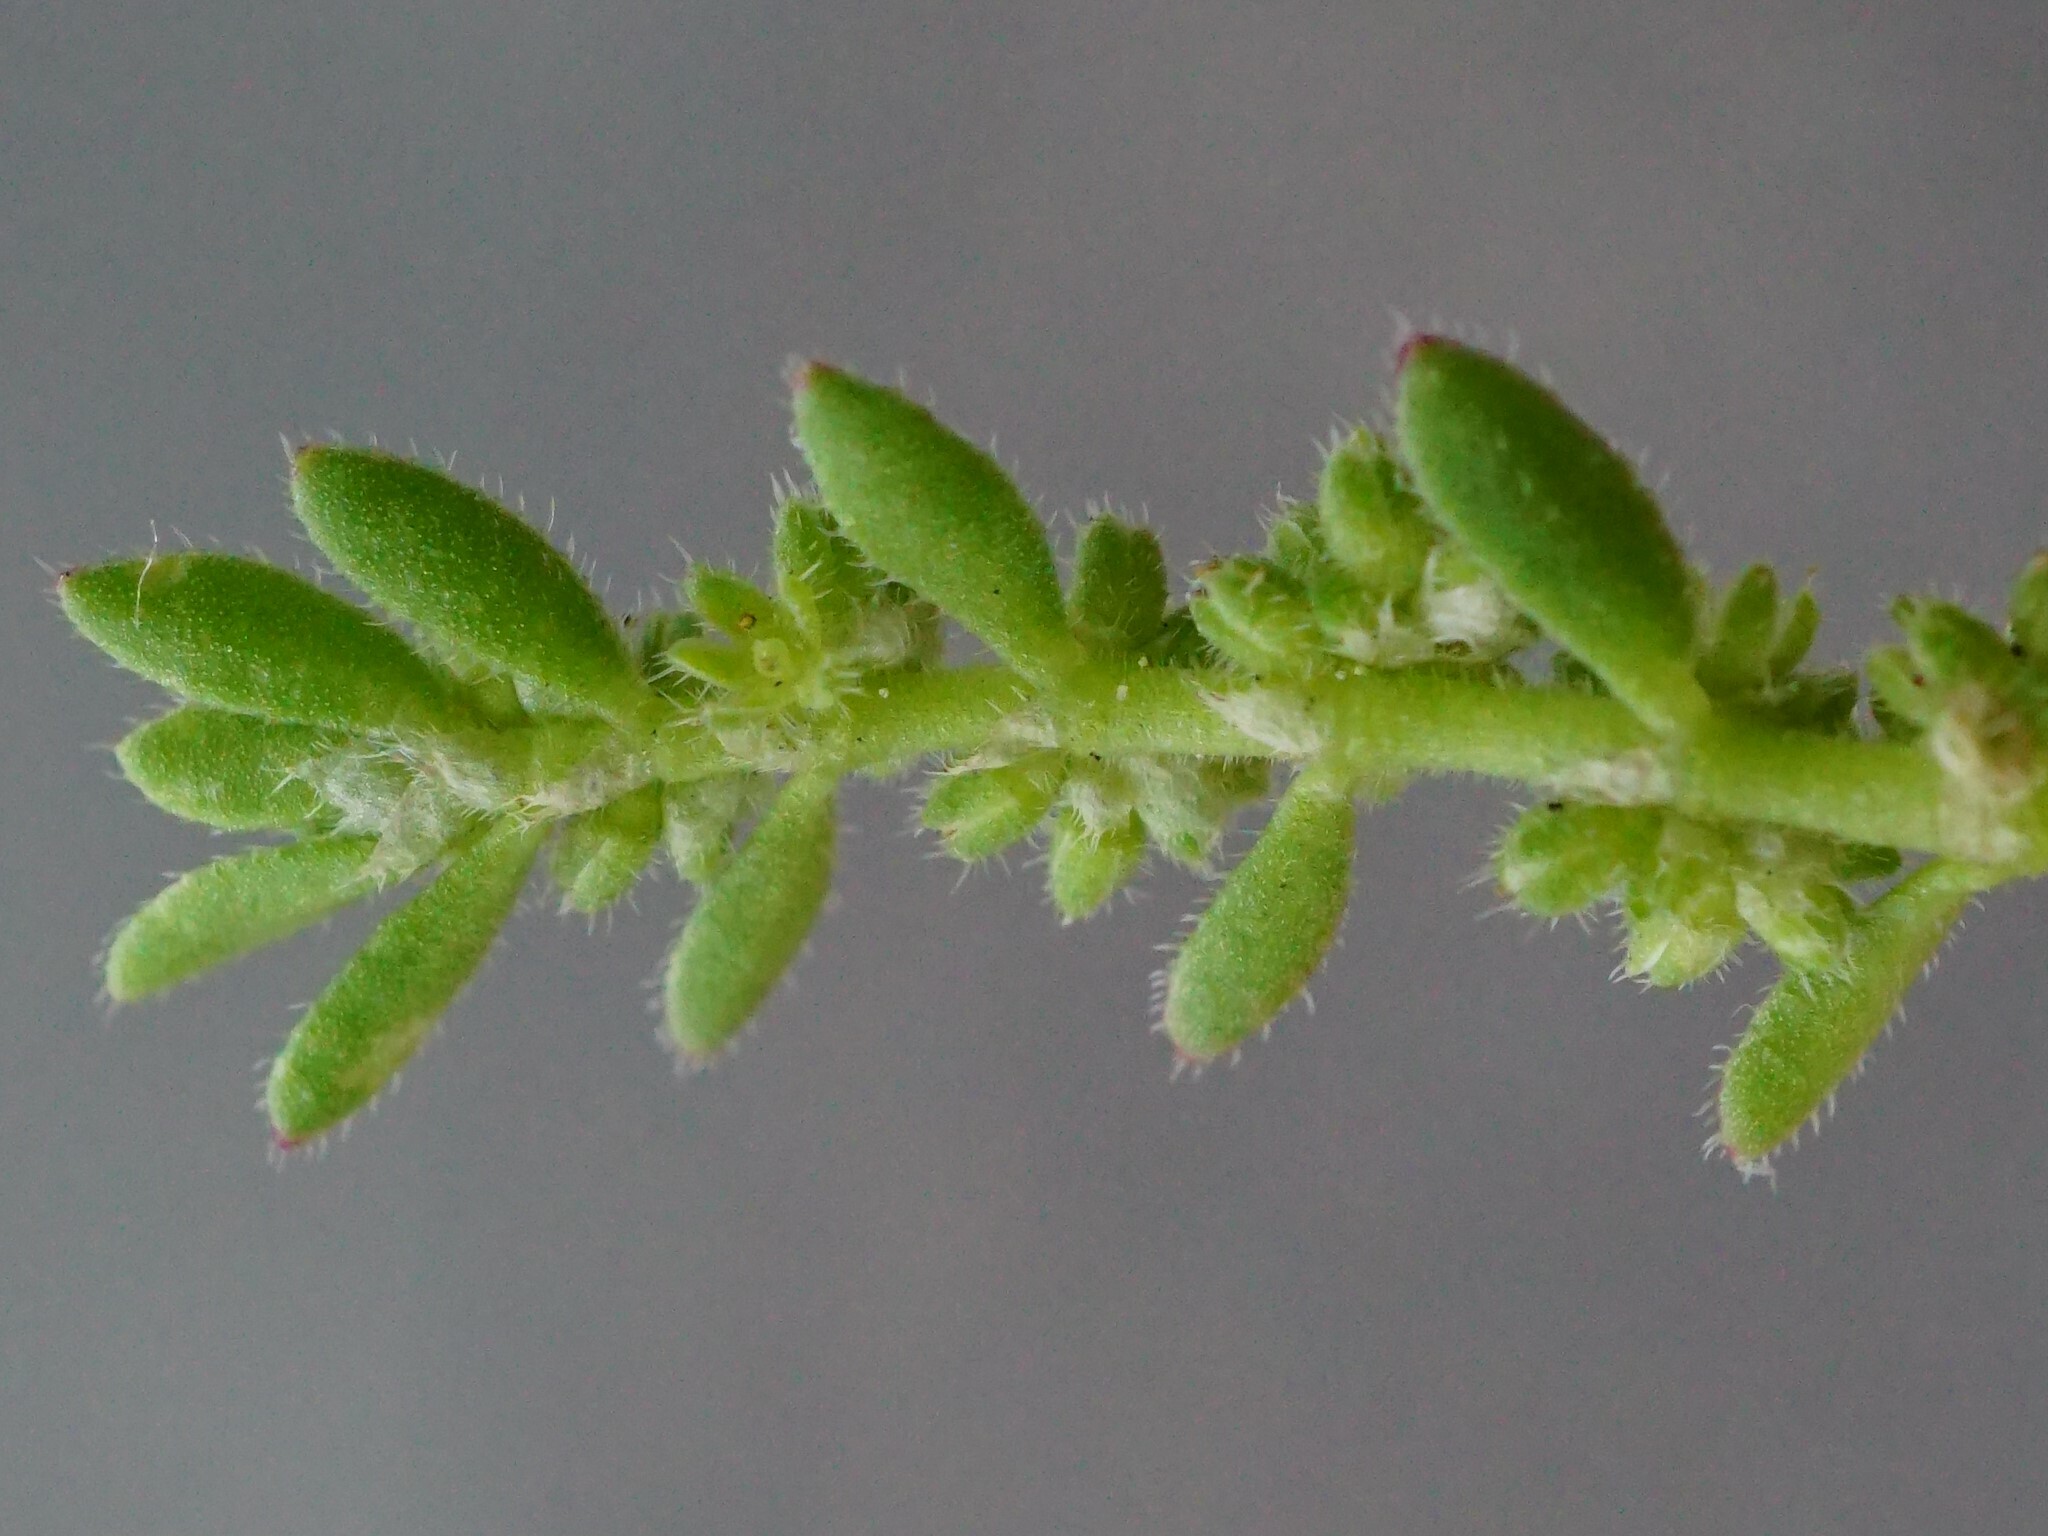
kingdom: Plantae
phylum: Tracheophyta
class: Magnoliopsida
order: Caryophyllales
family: Caryophyllaceae
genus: Herniaria
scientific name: Herniaria hirsuta
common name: Hairy rupturewort
